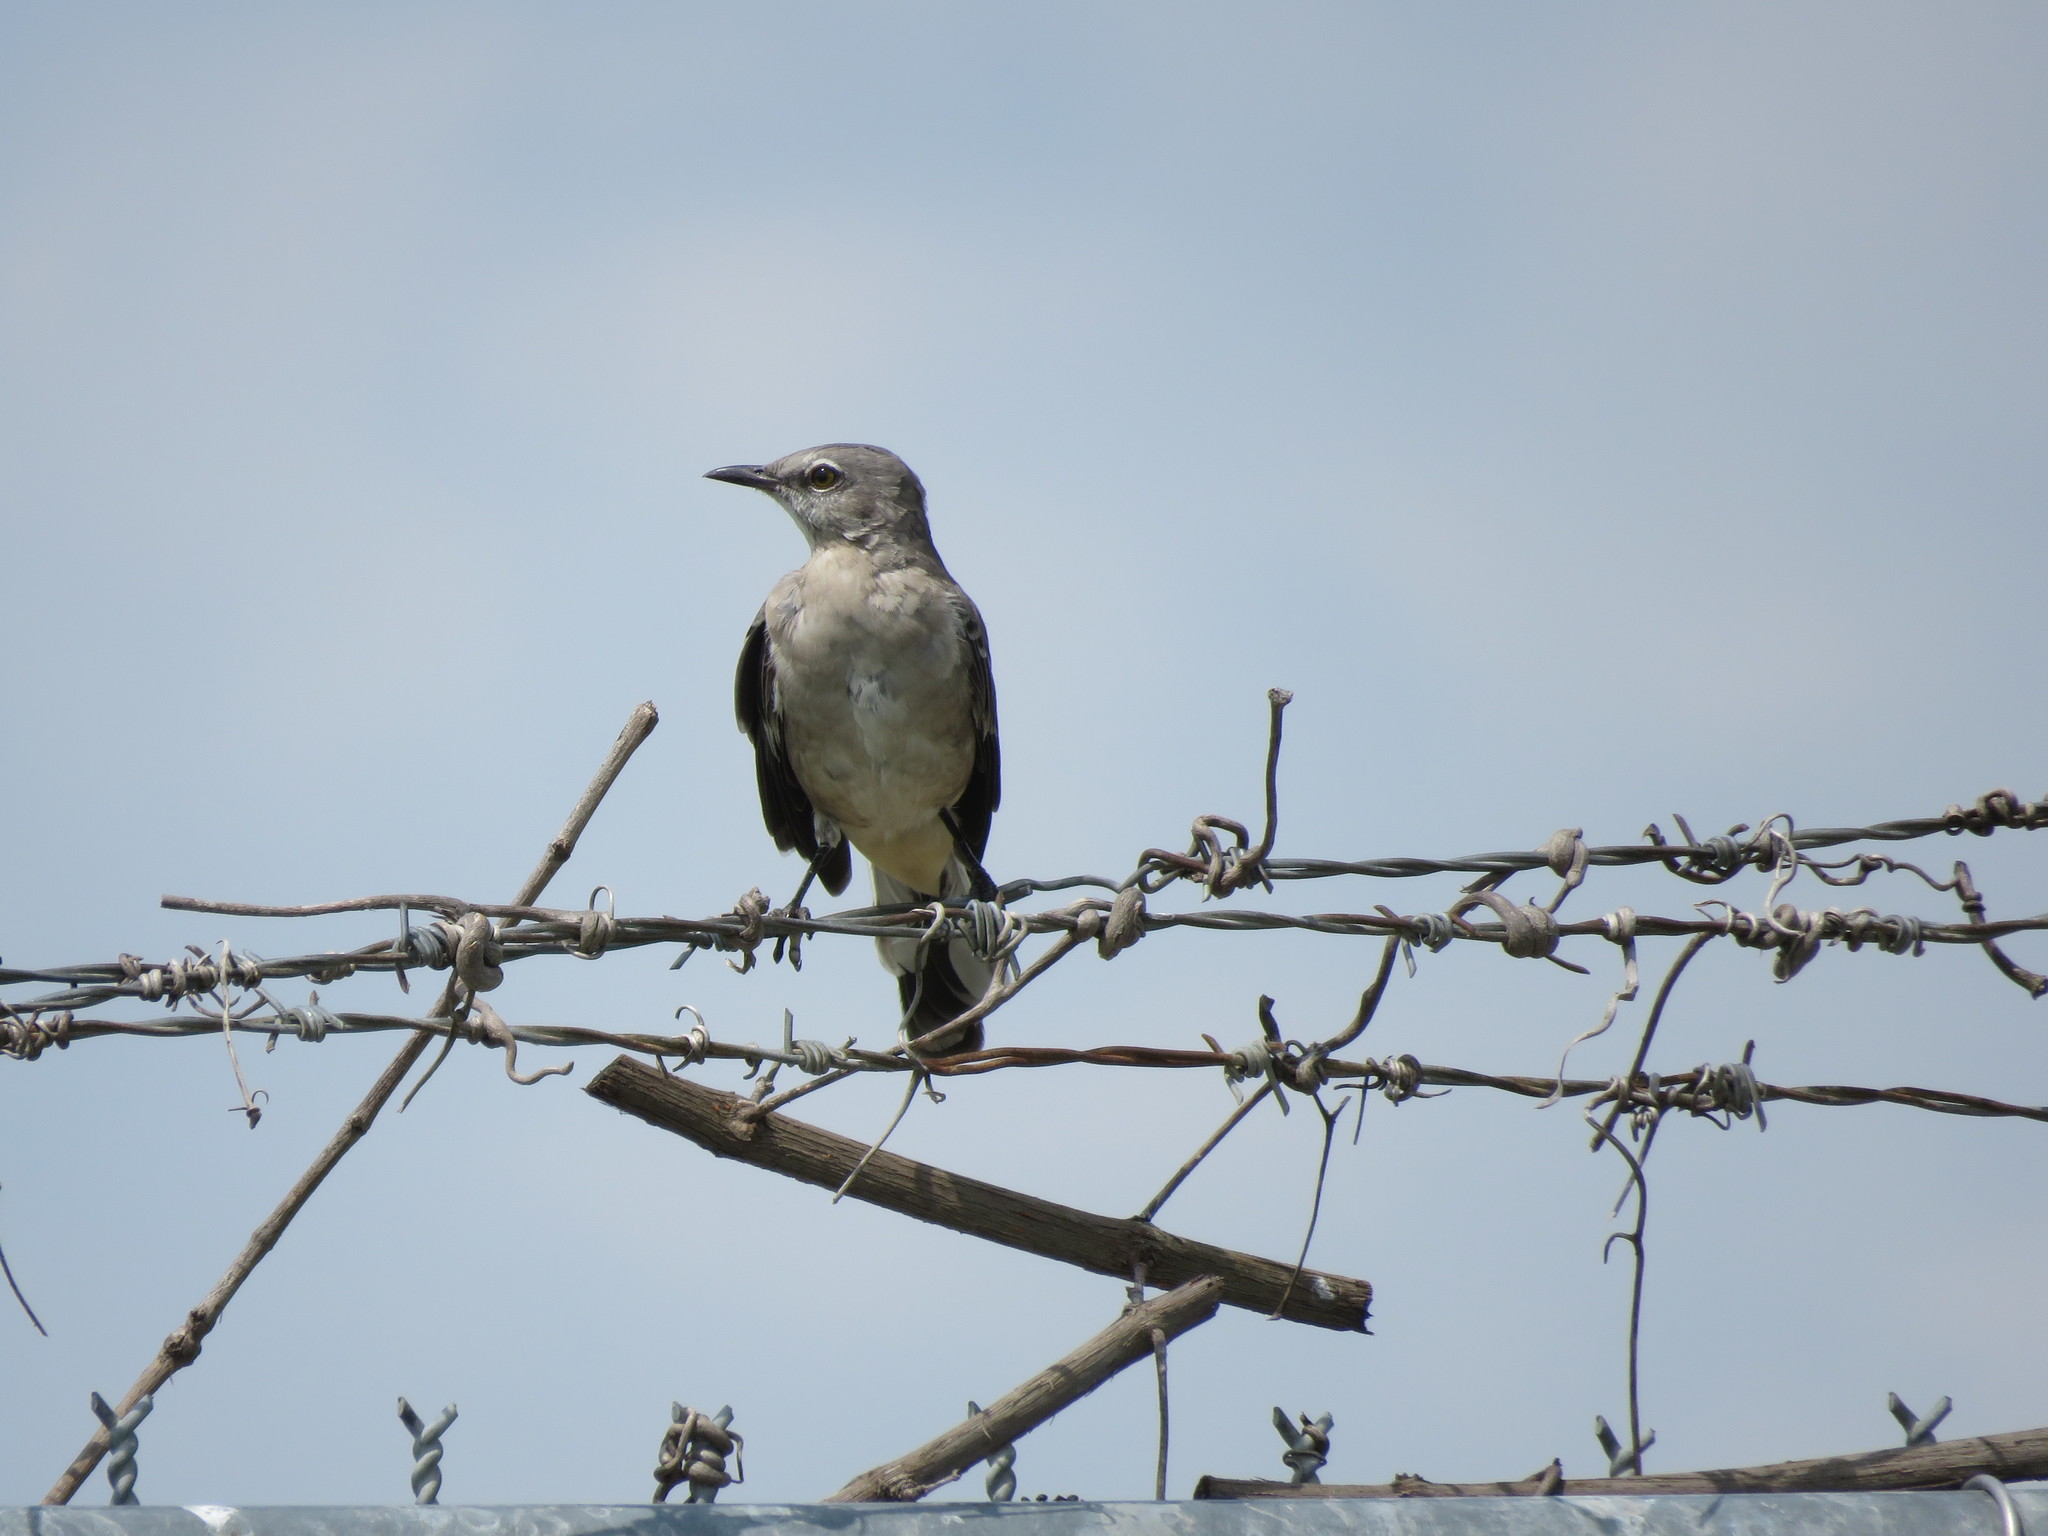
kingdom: Animalia
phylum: Chordata
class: Aves
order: Passeriformes
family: Mimidae
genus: Mimus
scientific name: Mimus polyglottos
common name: Northern mockingbird
